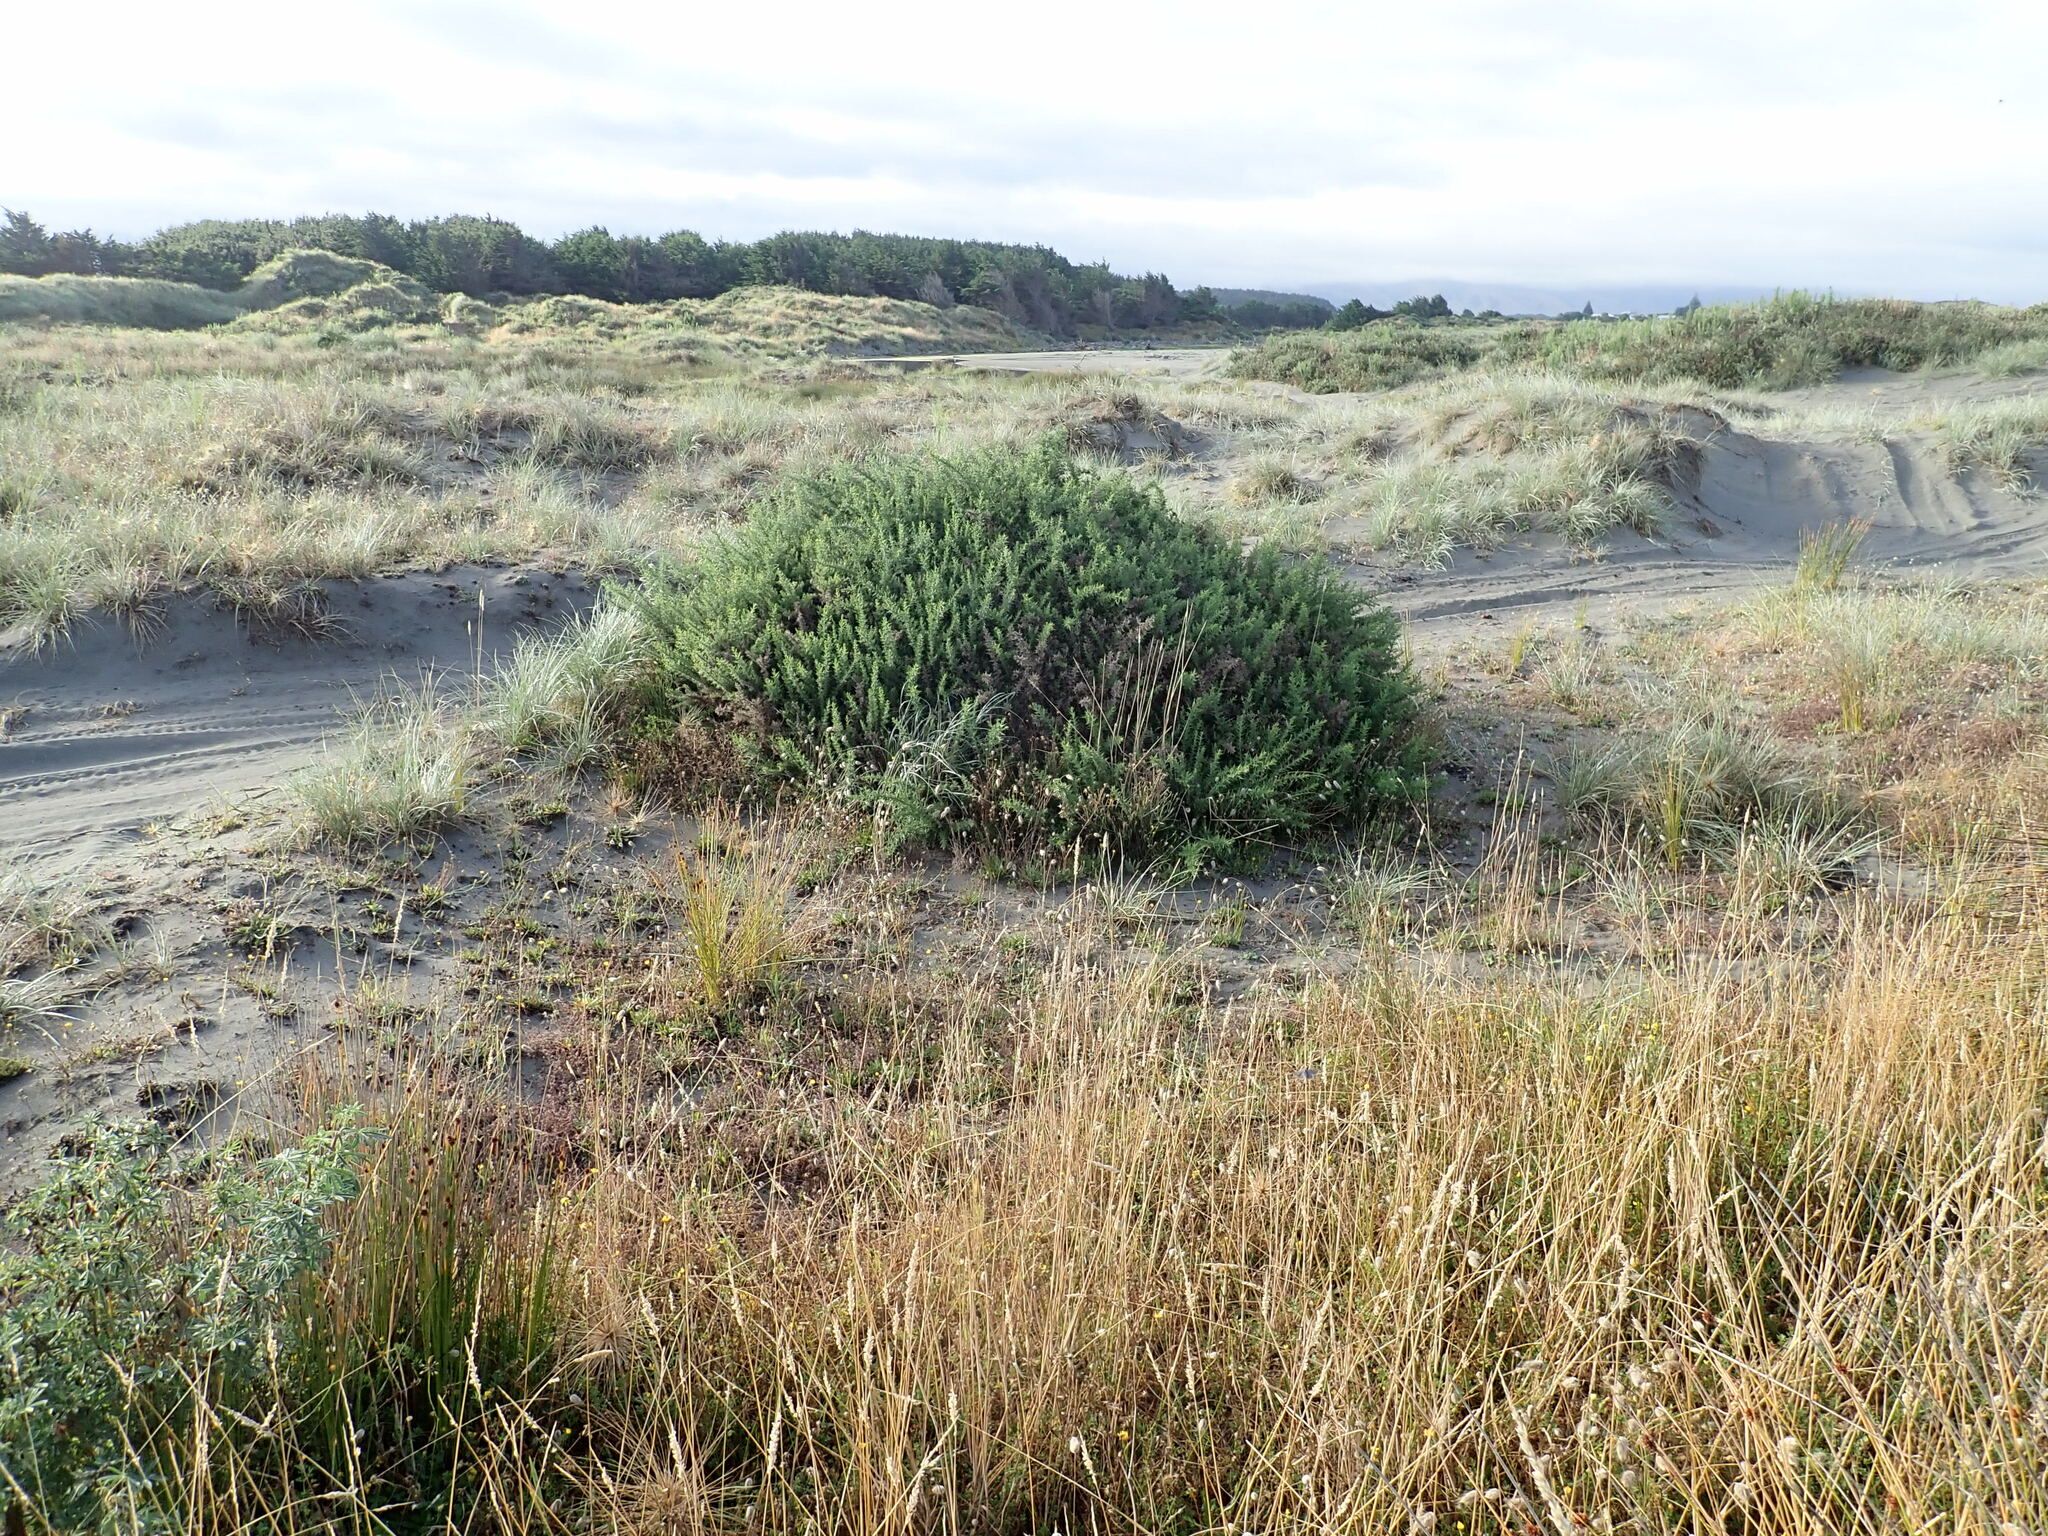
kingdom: Plantae
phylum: Tracheophyta
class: Magnoliopsida
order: Fabales
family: Fabaceae
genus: Ulex
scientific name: Ulex europaeus
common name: Common gorse
